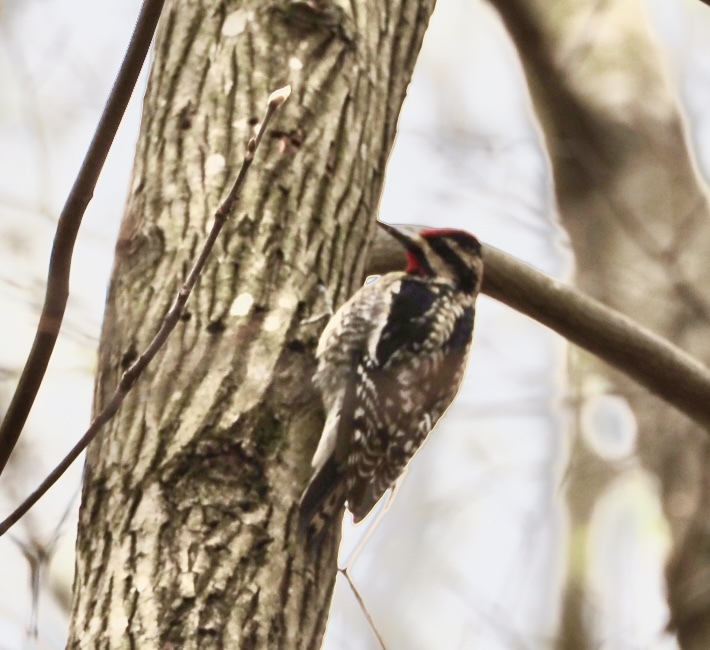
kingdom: Animalia
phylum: Chordata
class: Aves
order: Piciformes
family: Picidae
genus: Sphyrapicus
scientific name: Sphyrapicus varius
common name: Yellow-bellied sapsucker
